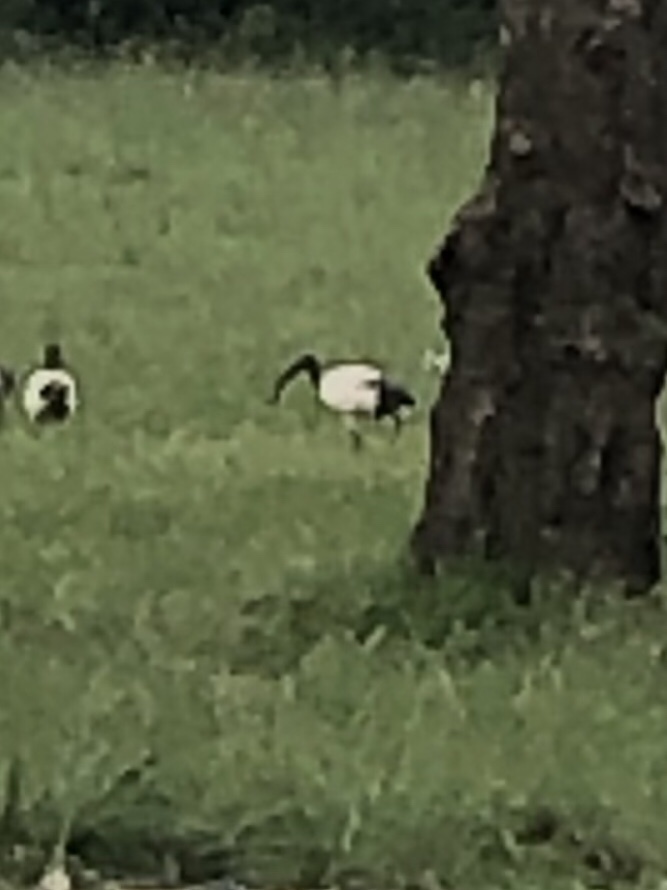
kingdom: Animalia
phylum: Chordata
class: Aves
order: Pelecaniformes
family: Threskiornithidae
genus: Threskiornis
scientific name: Threskiornis aethiopicus
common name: Sacred ibis
